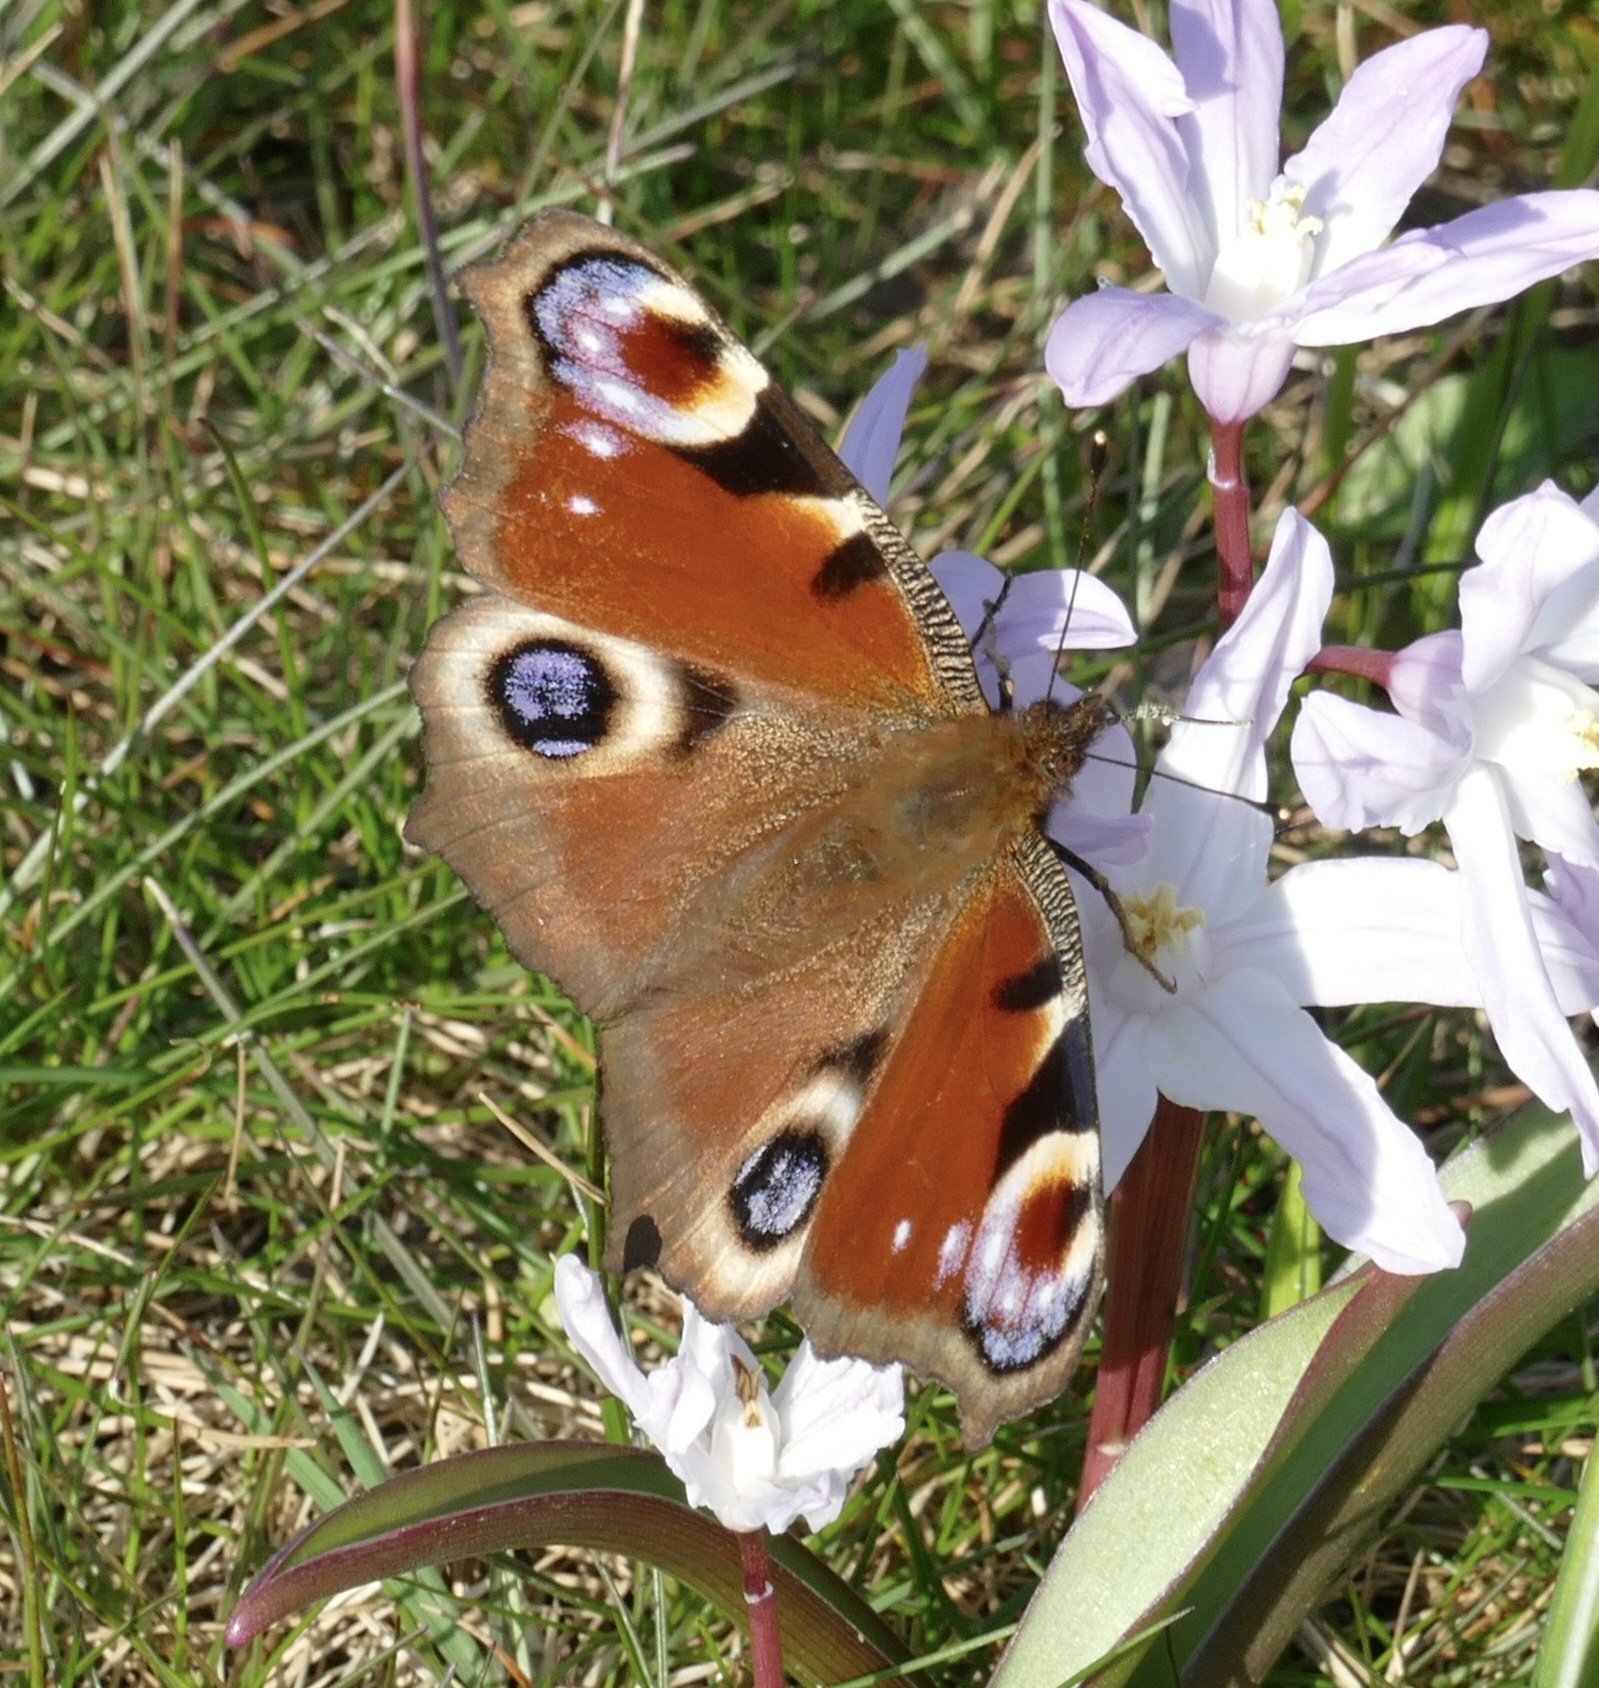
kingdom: Animalia
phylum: Arthropoda
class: Insecta
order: Lepidoptera
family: Nymphalidae
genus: Aglais
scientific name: Aglais io
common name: Peacock
